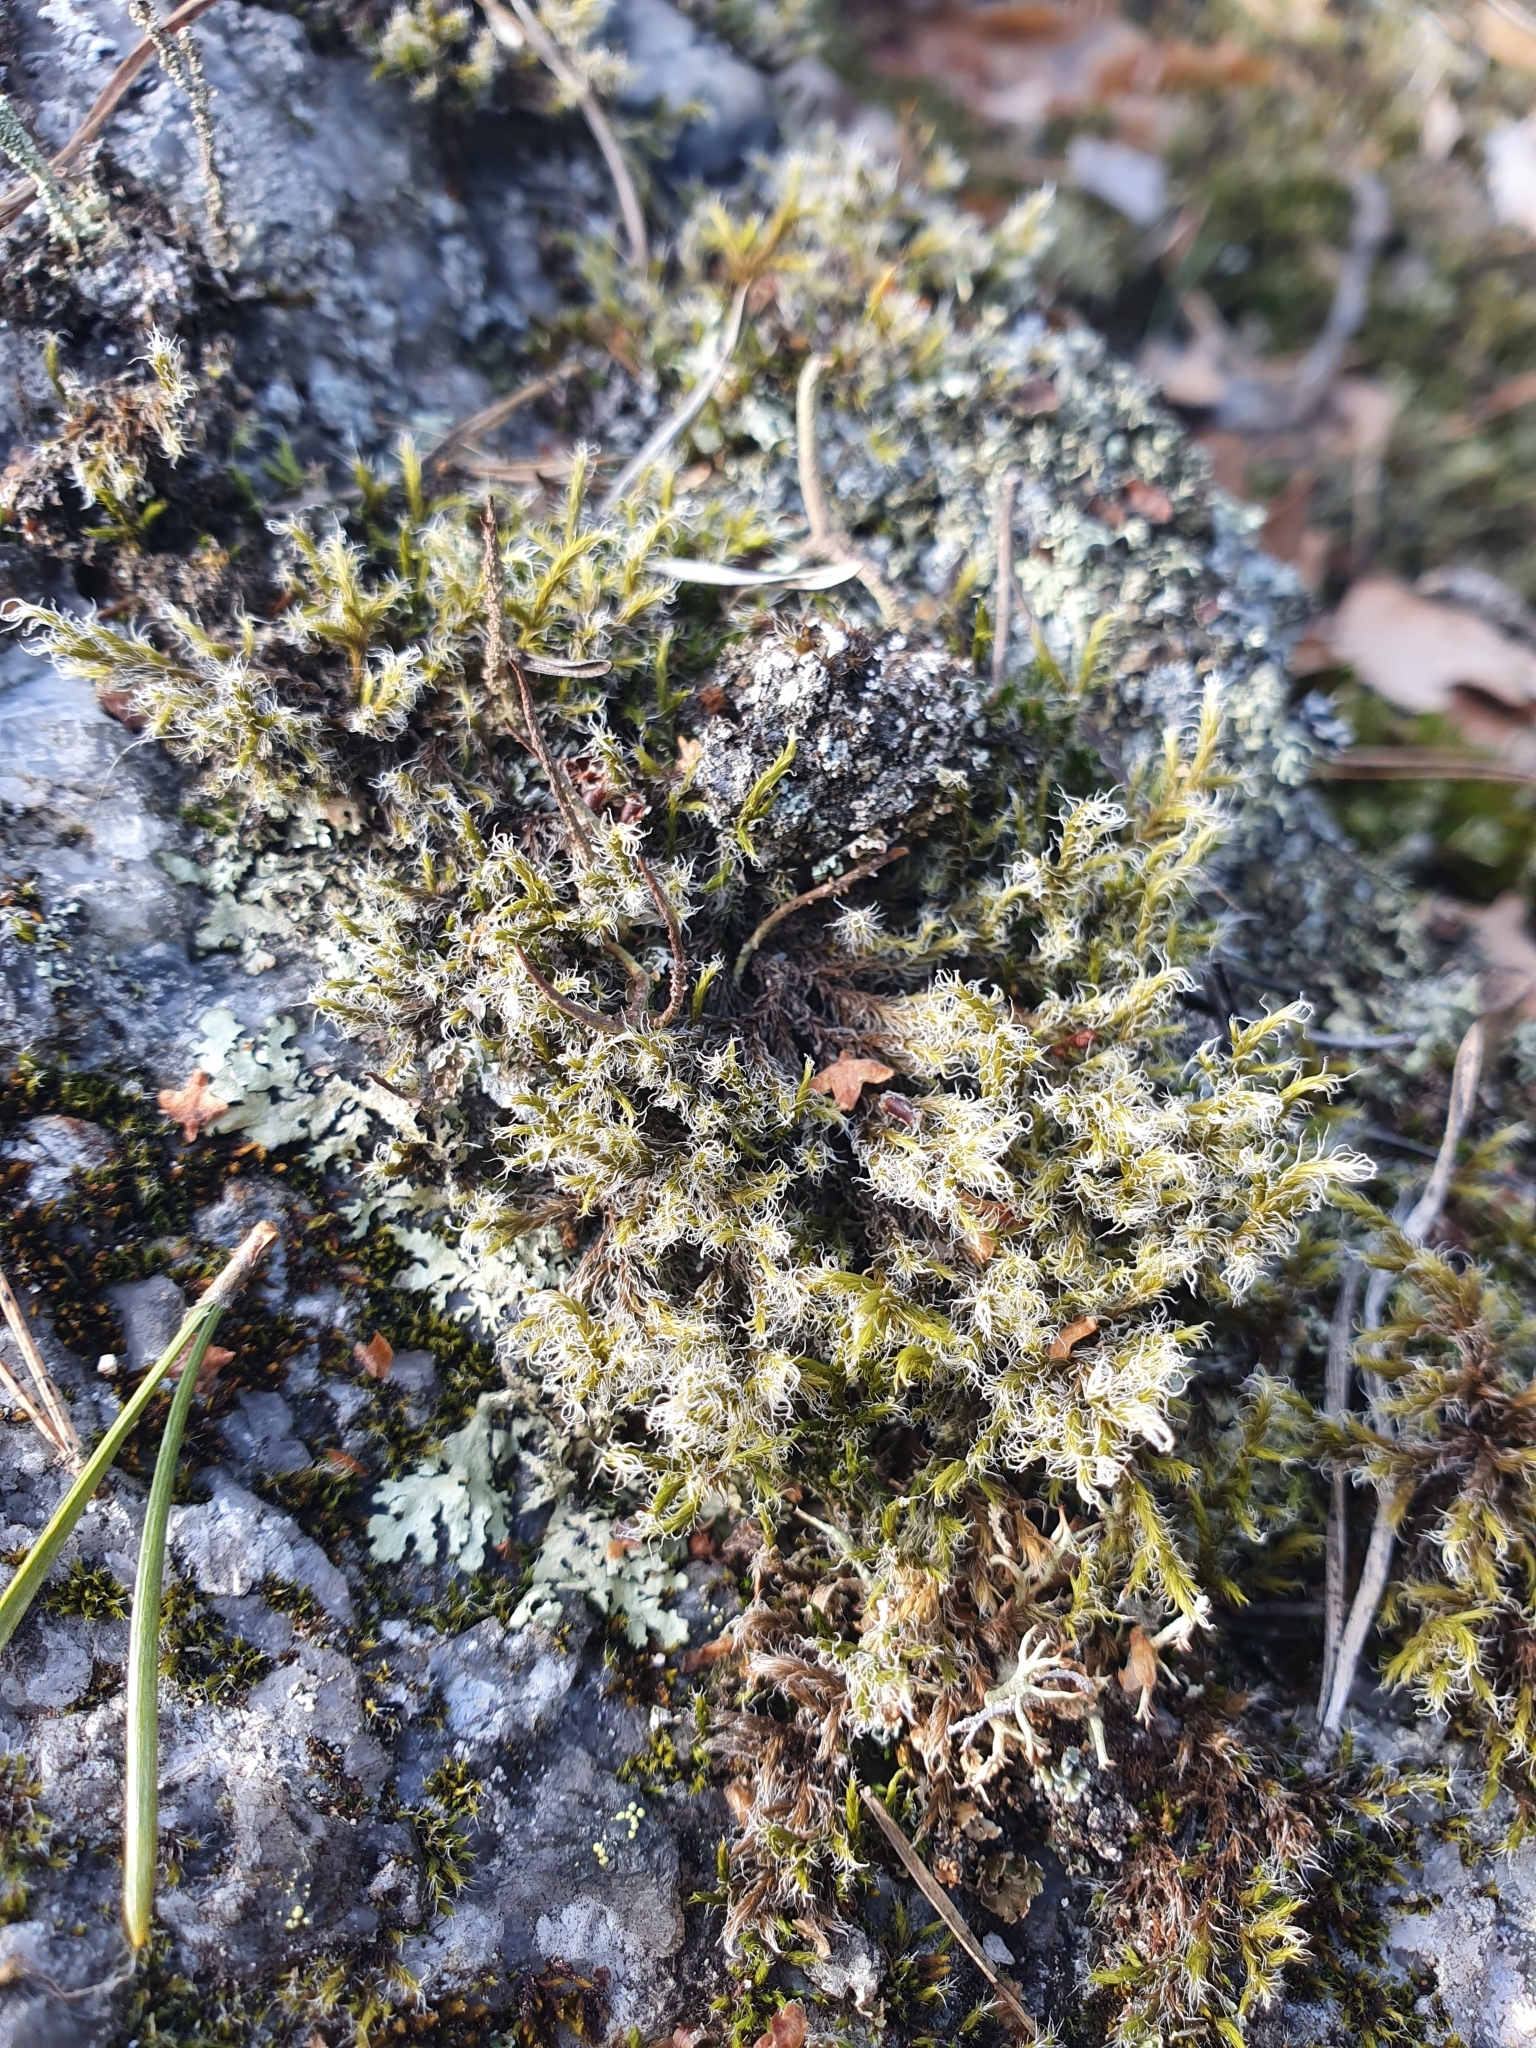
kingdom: Plantae
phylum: Bryophyta
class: Bryopsida
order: Grimmiales
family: Grimmiaceae
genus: Racomitrium
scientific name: Racomitrium lanuginosum
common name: Hoary rock moss
